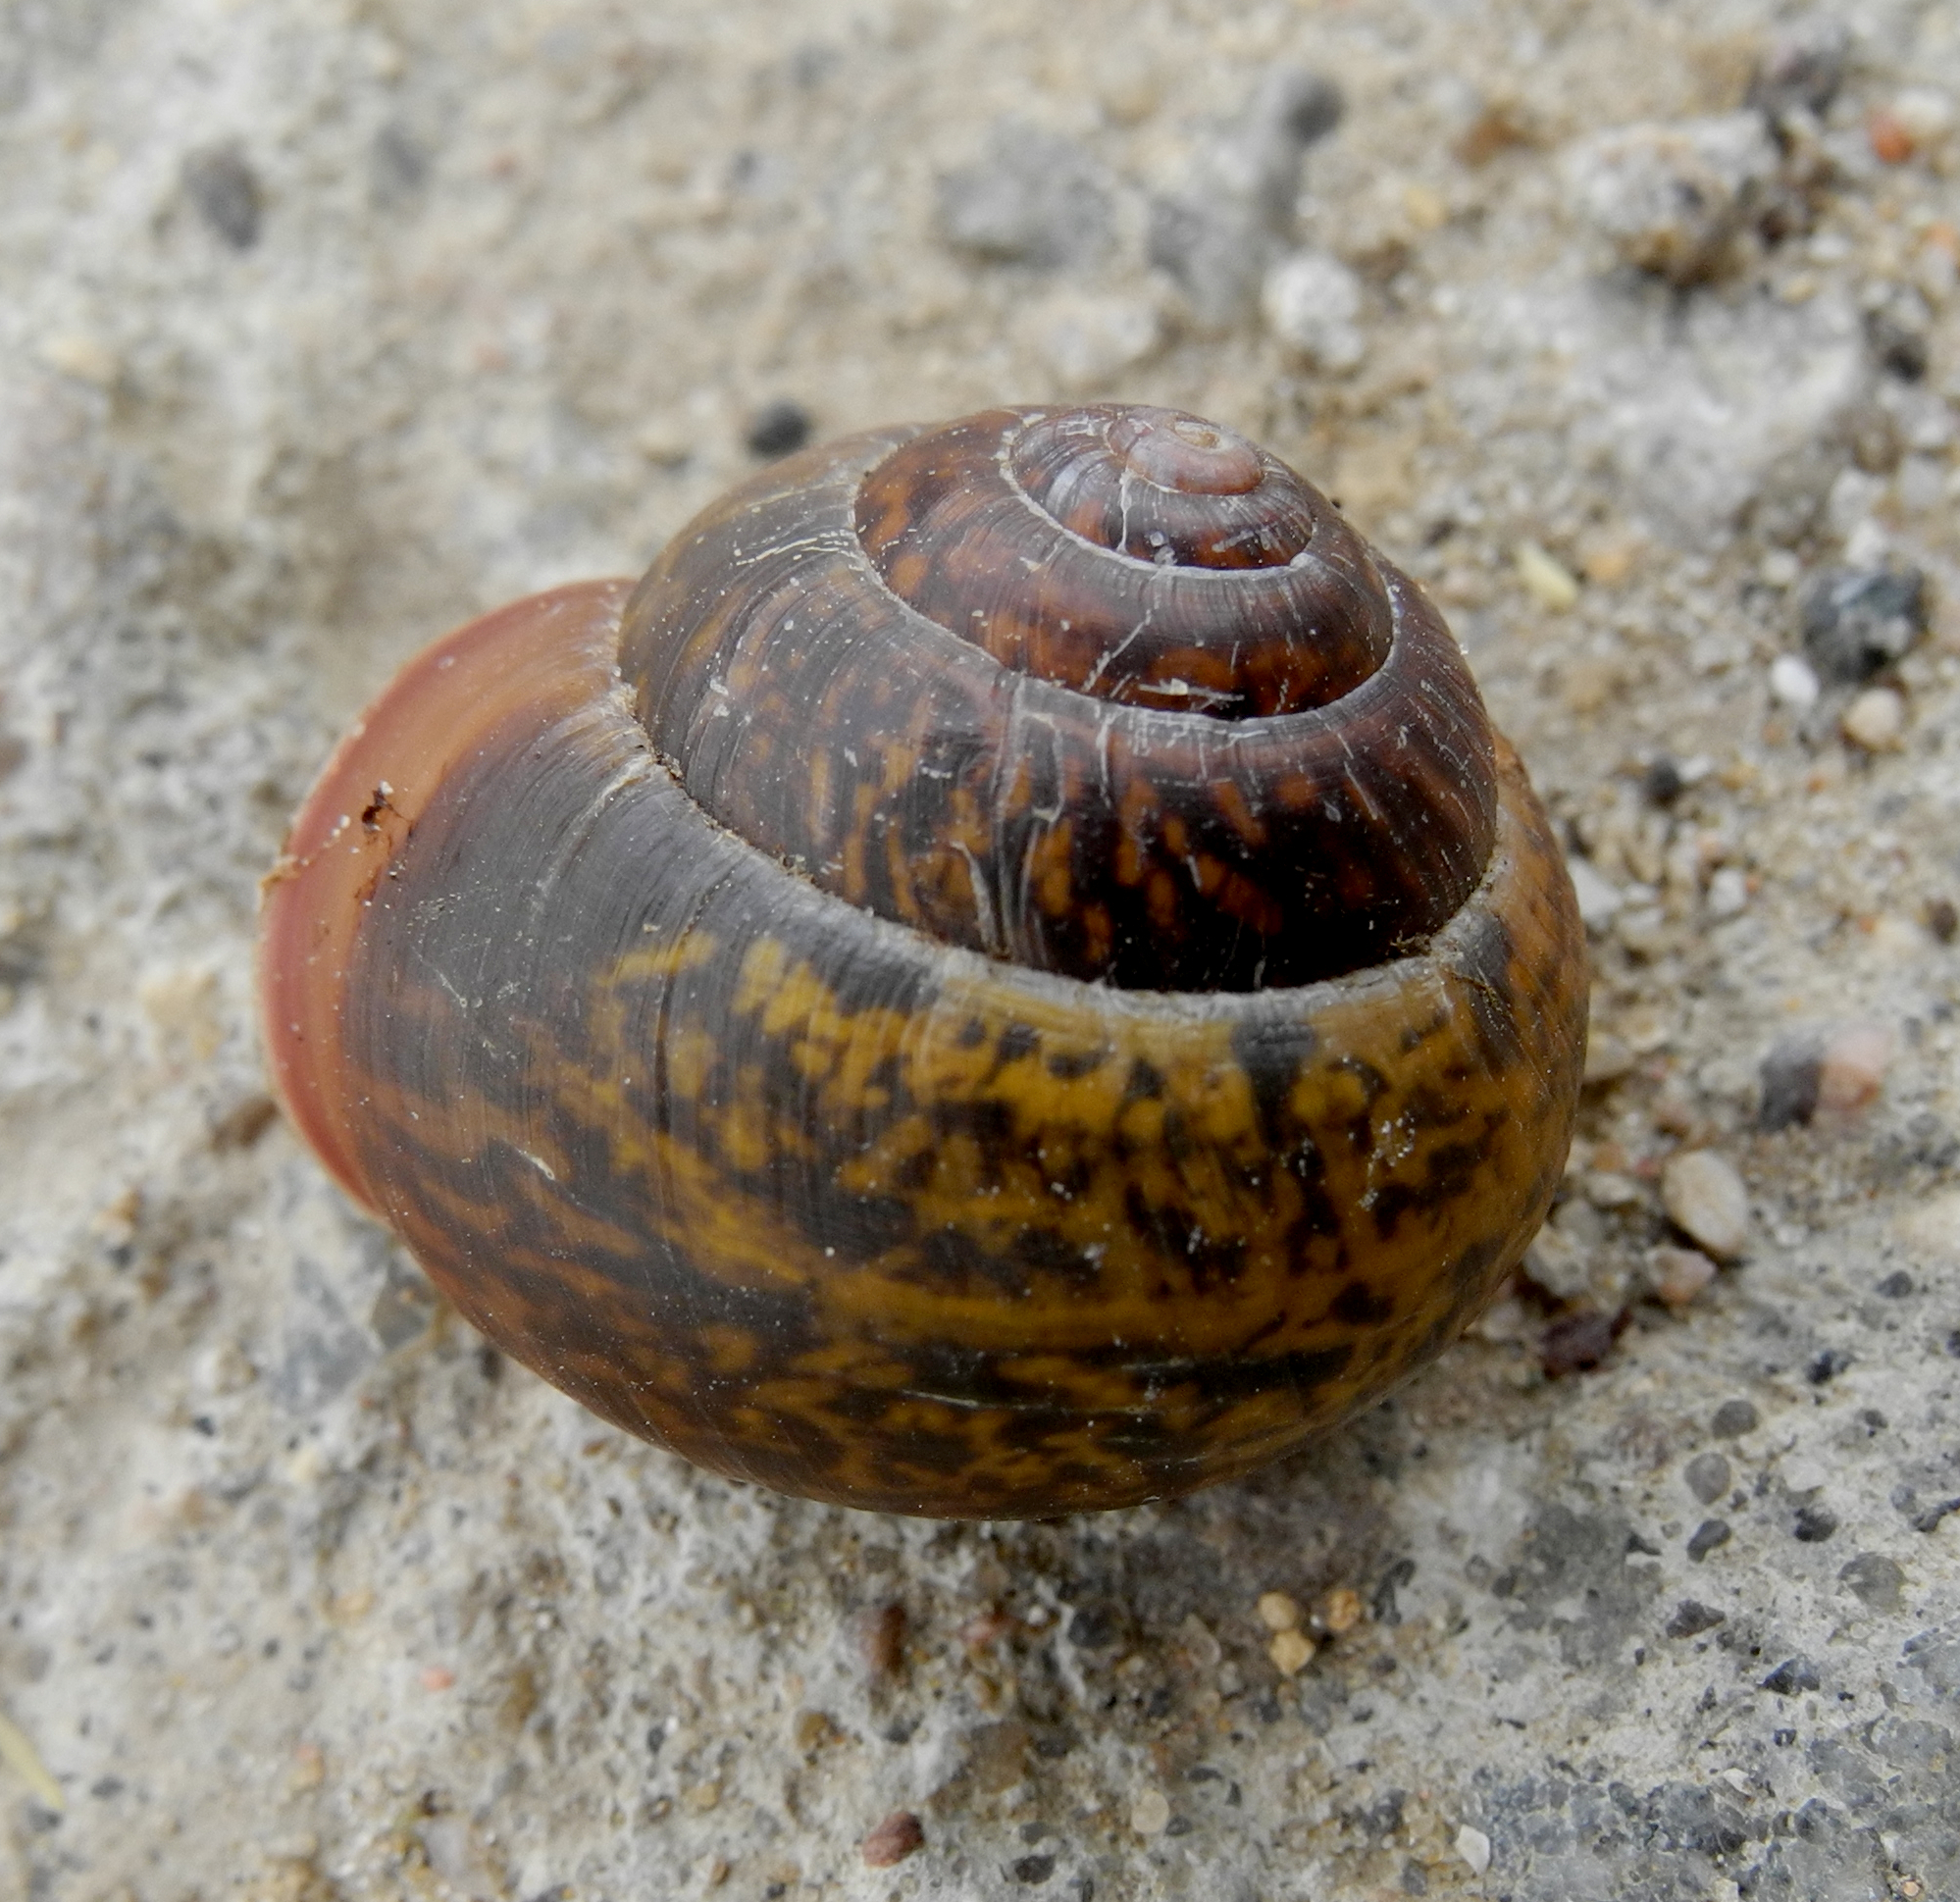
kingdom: Animalia
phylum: Mollusca
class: Gastropoda
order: Stylommatophora
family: Camaenidae
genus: Fruticicola
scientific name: Fruticicola fruticum
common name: Bush snail
